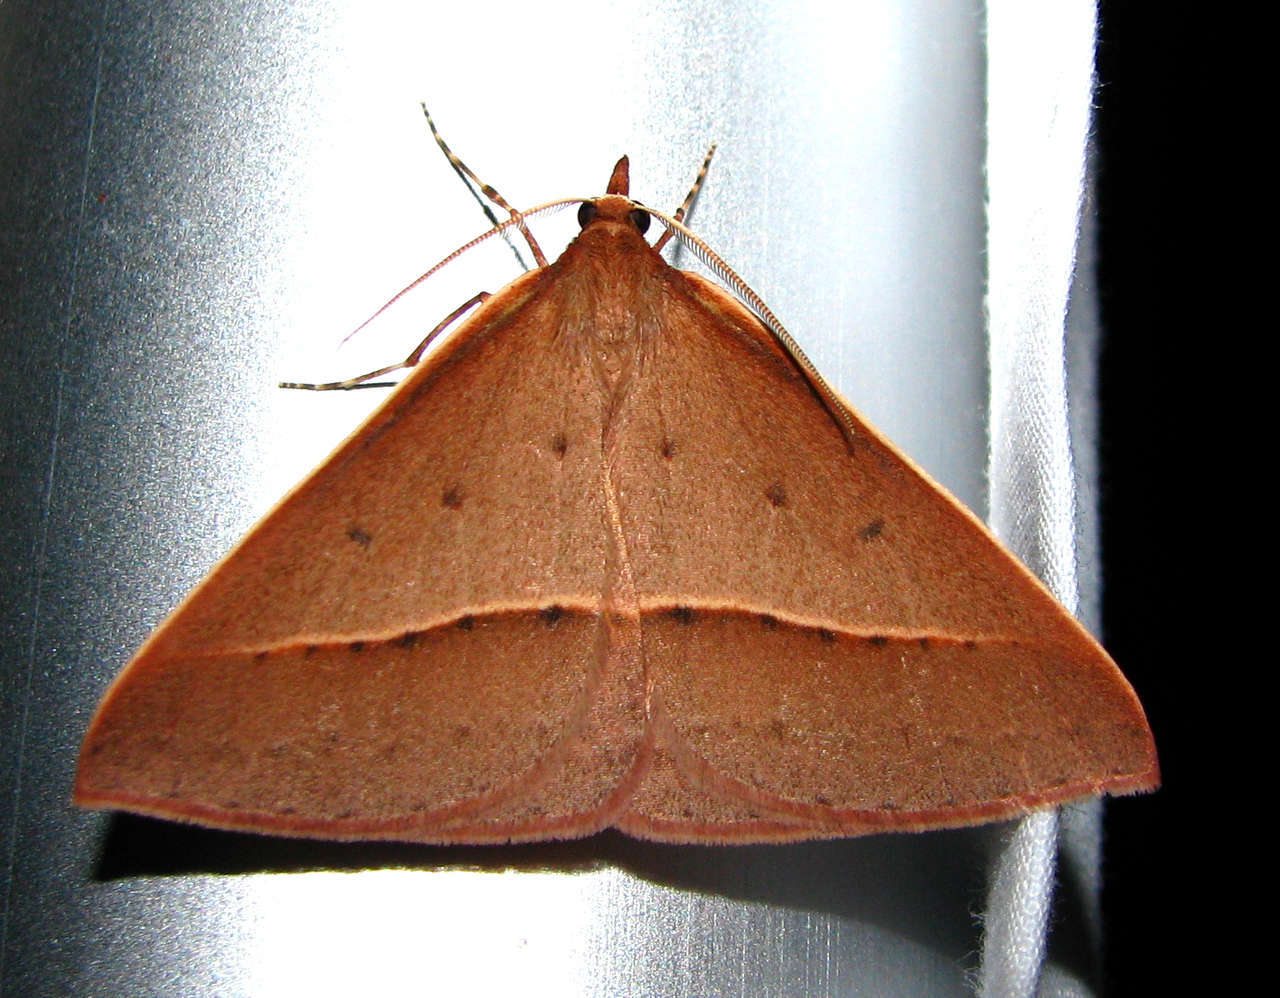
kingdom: Animalia
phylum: Arthropoda
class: Insecta
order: Lepidoptera
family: Geometridae
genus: Epidesmia
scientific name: Epidesmia chilonaria
